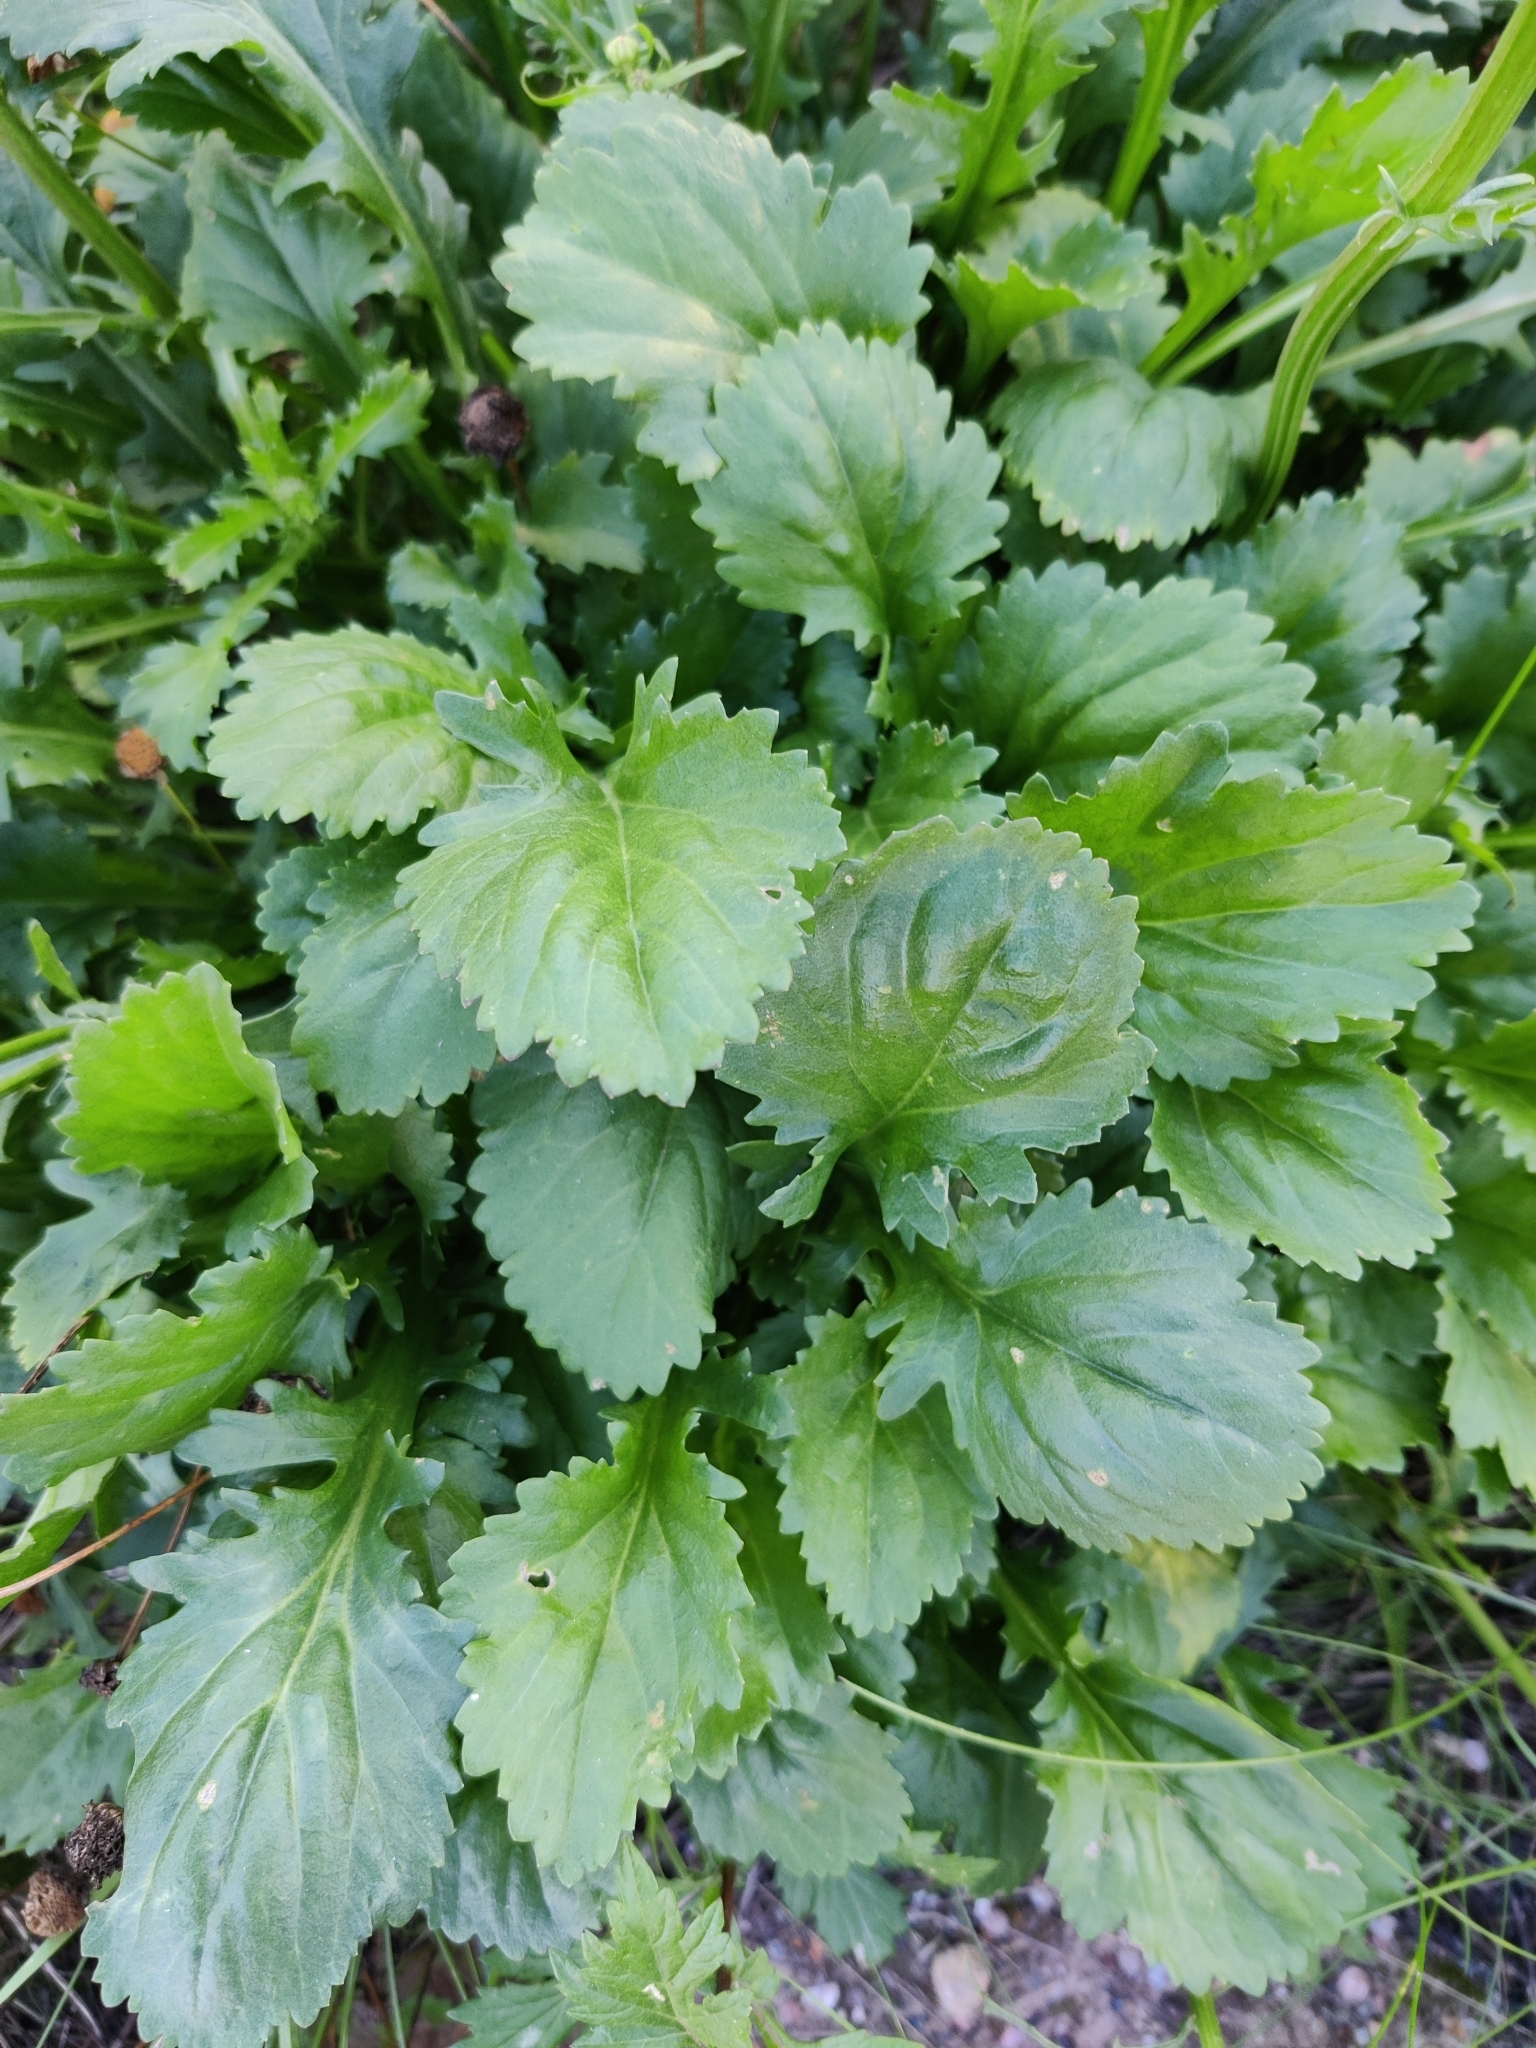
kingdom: Plantae
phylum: Tracheophyta
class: Magnoliopsida
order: Asterales
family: Asteraceae
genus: Leucanthemum
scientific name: Leucanthemum vulgare
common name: Oxeye daisy
